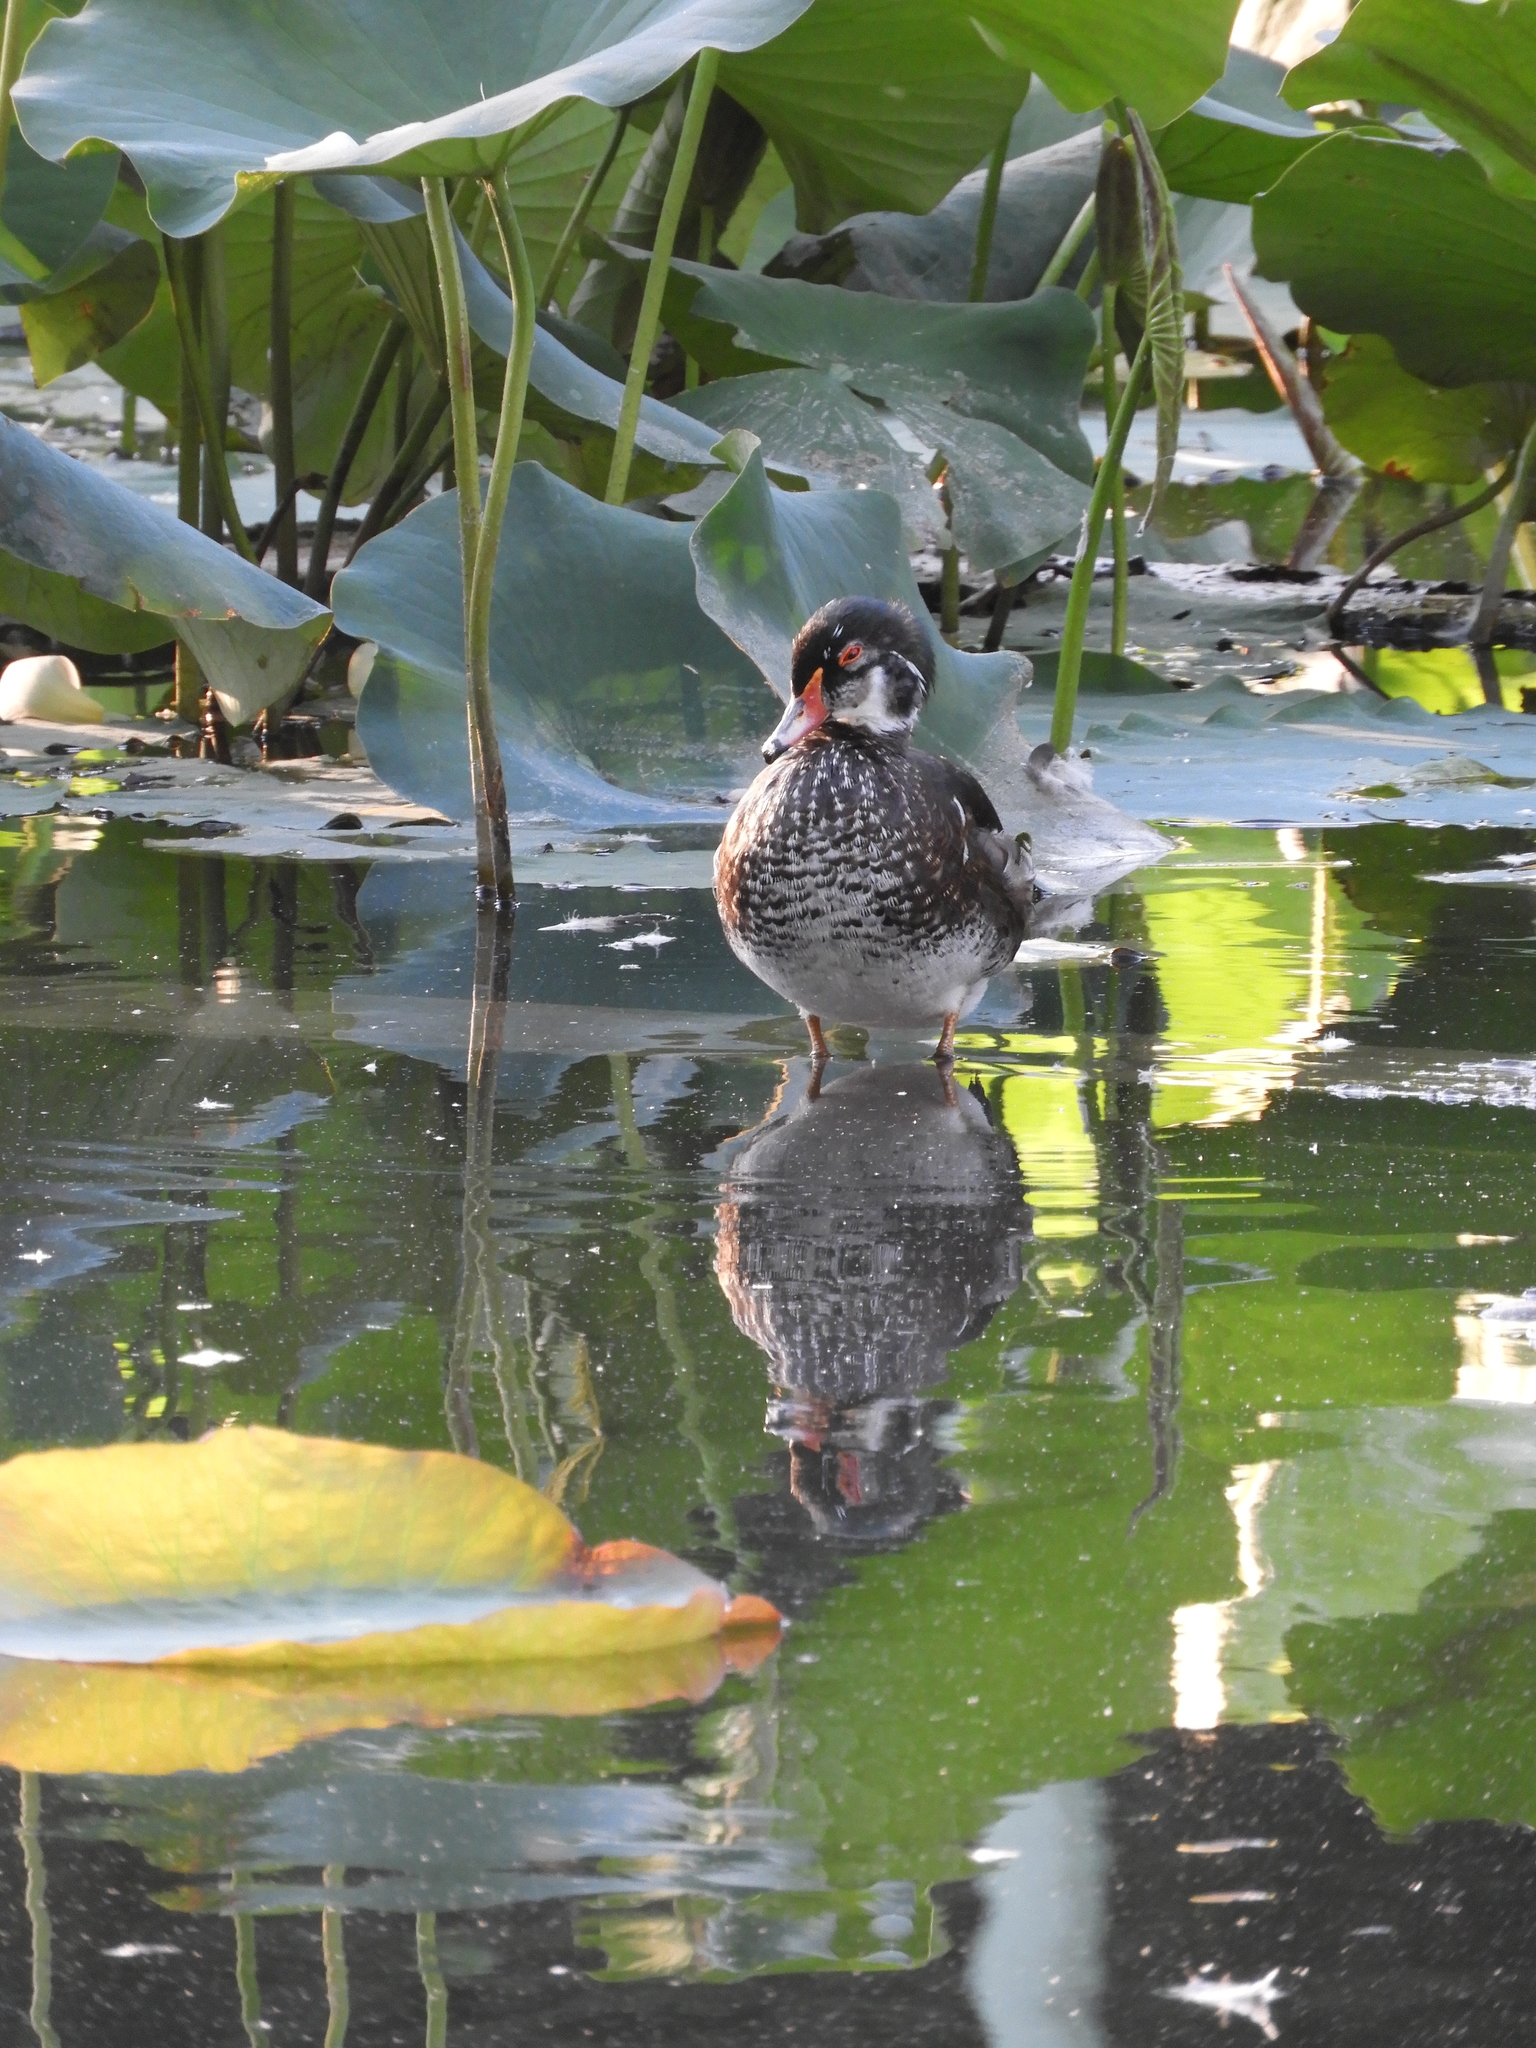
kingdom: Animalia
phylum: Chordata
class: Aves
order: Anseriformes
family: Anatidae
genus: Aix
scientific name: Aix sponsa
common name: Wood duck
